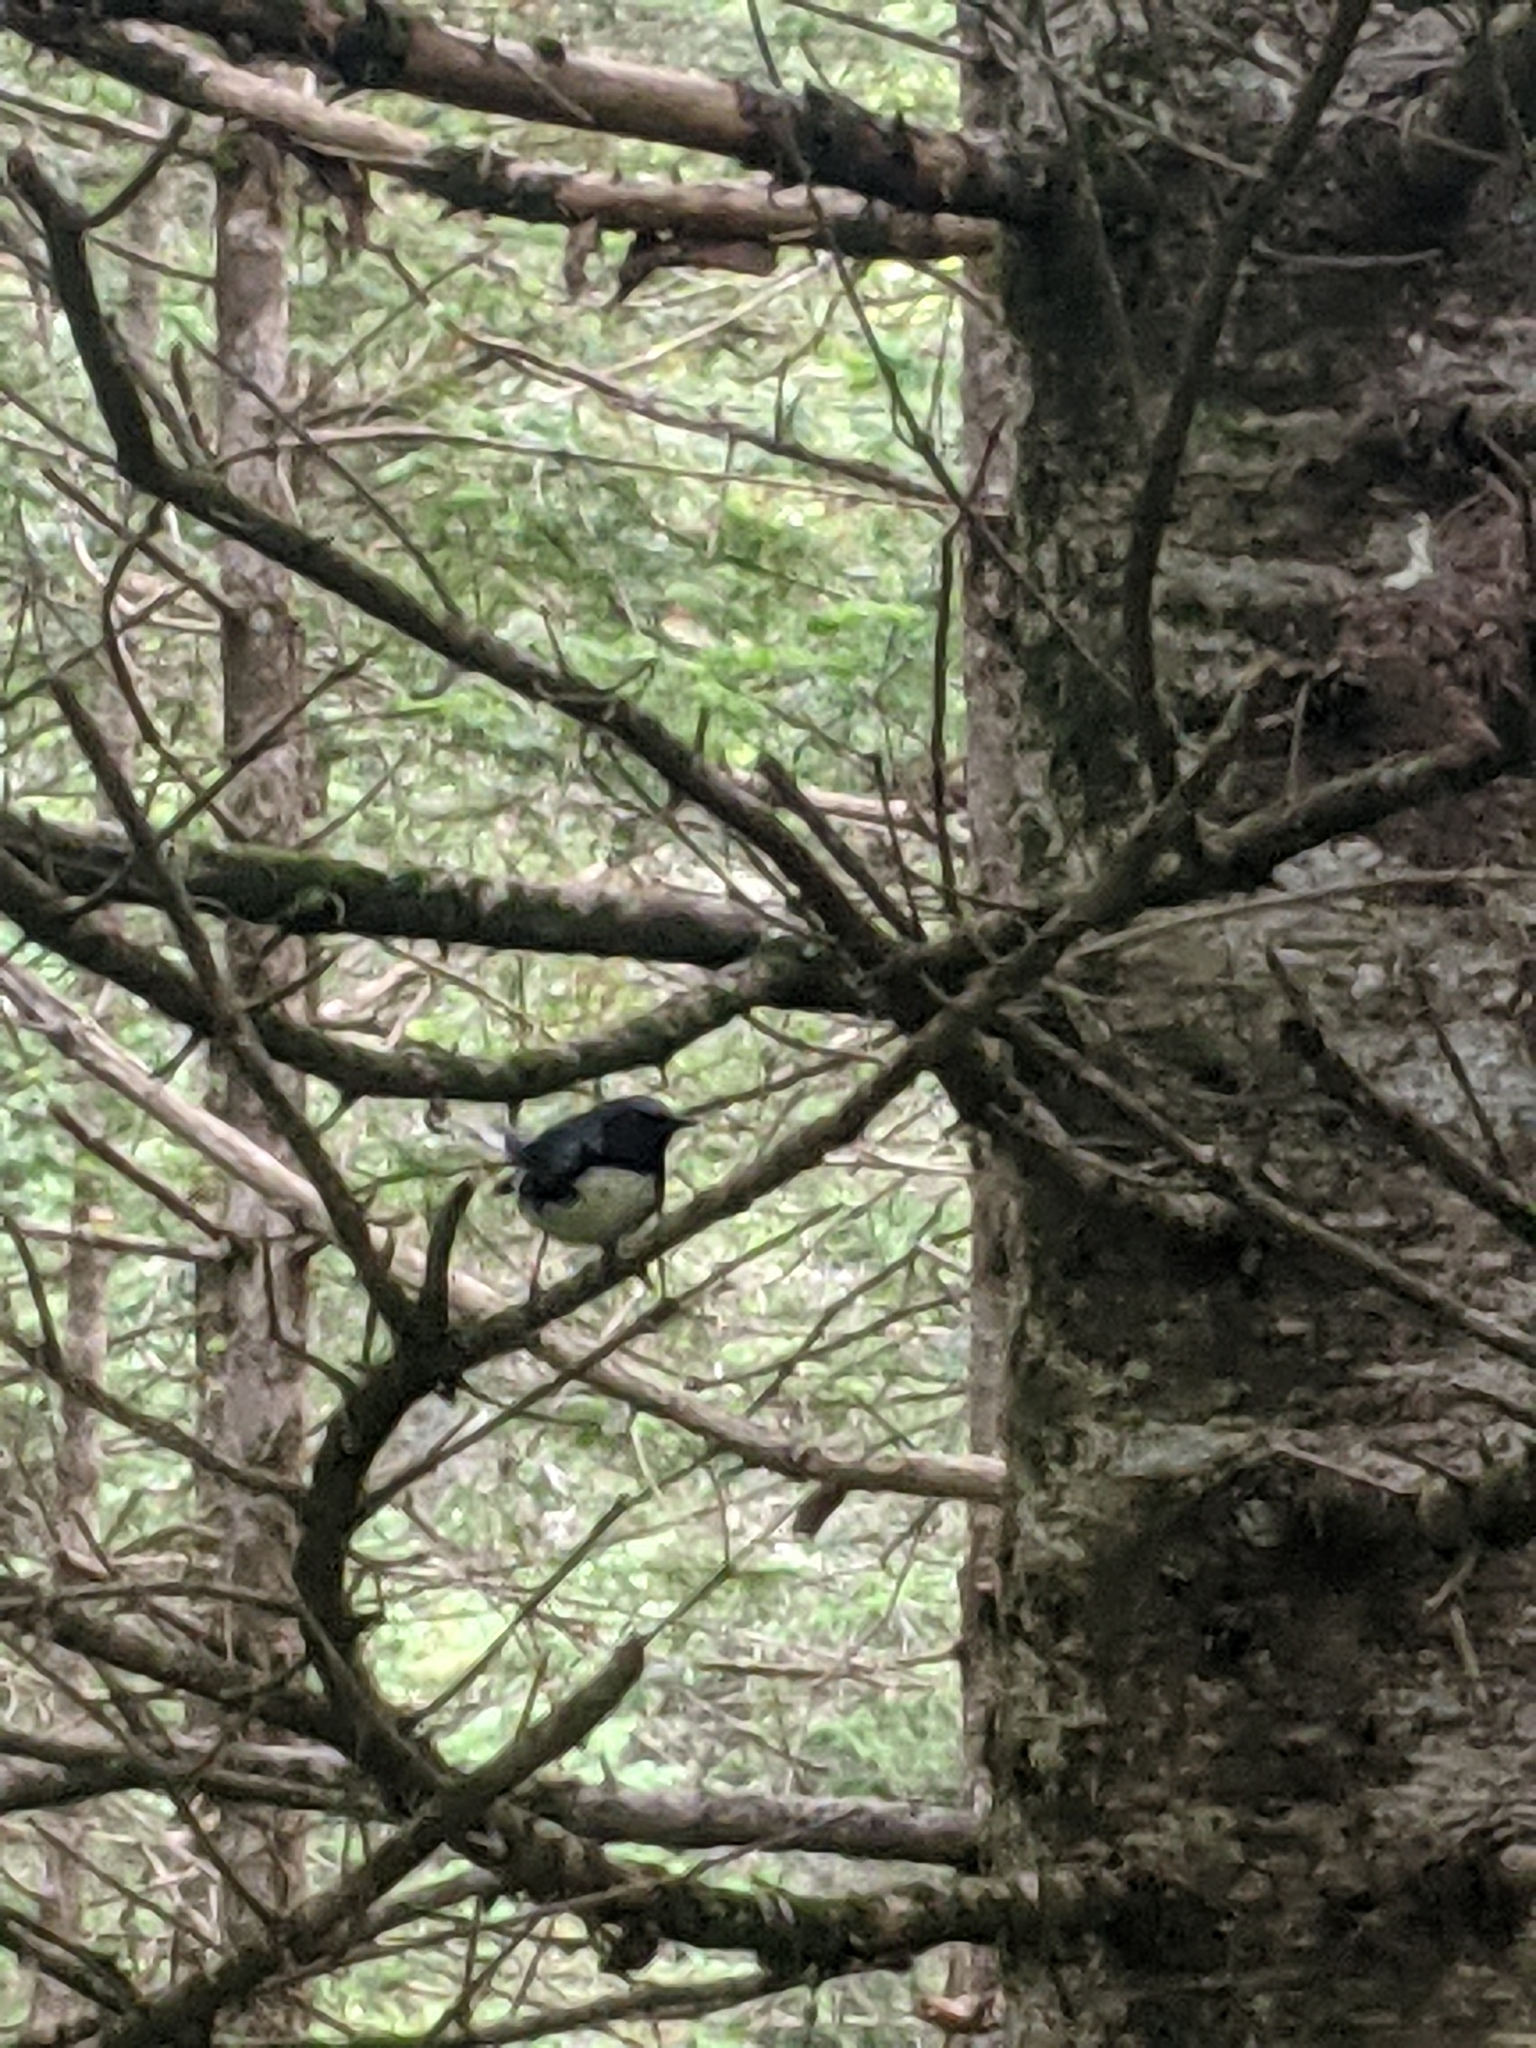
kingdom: Animalia
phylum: Chordata
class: Aves
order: Passeriformes
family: Parulidae
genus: Setophaga
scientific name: Setophaga caerulescens
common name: Black-throated blue warbler
